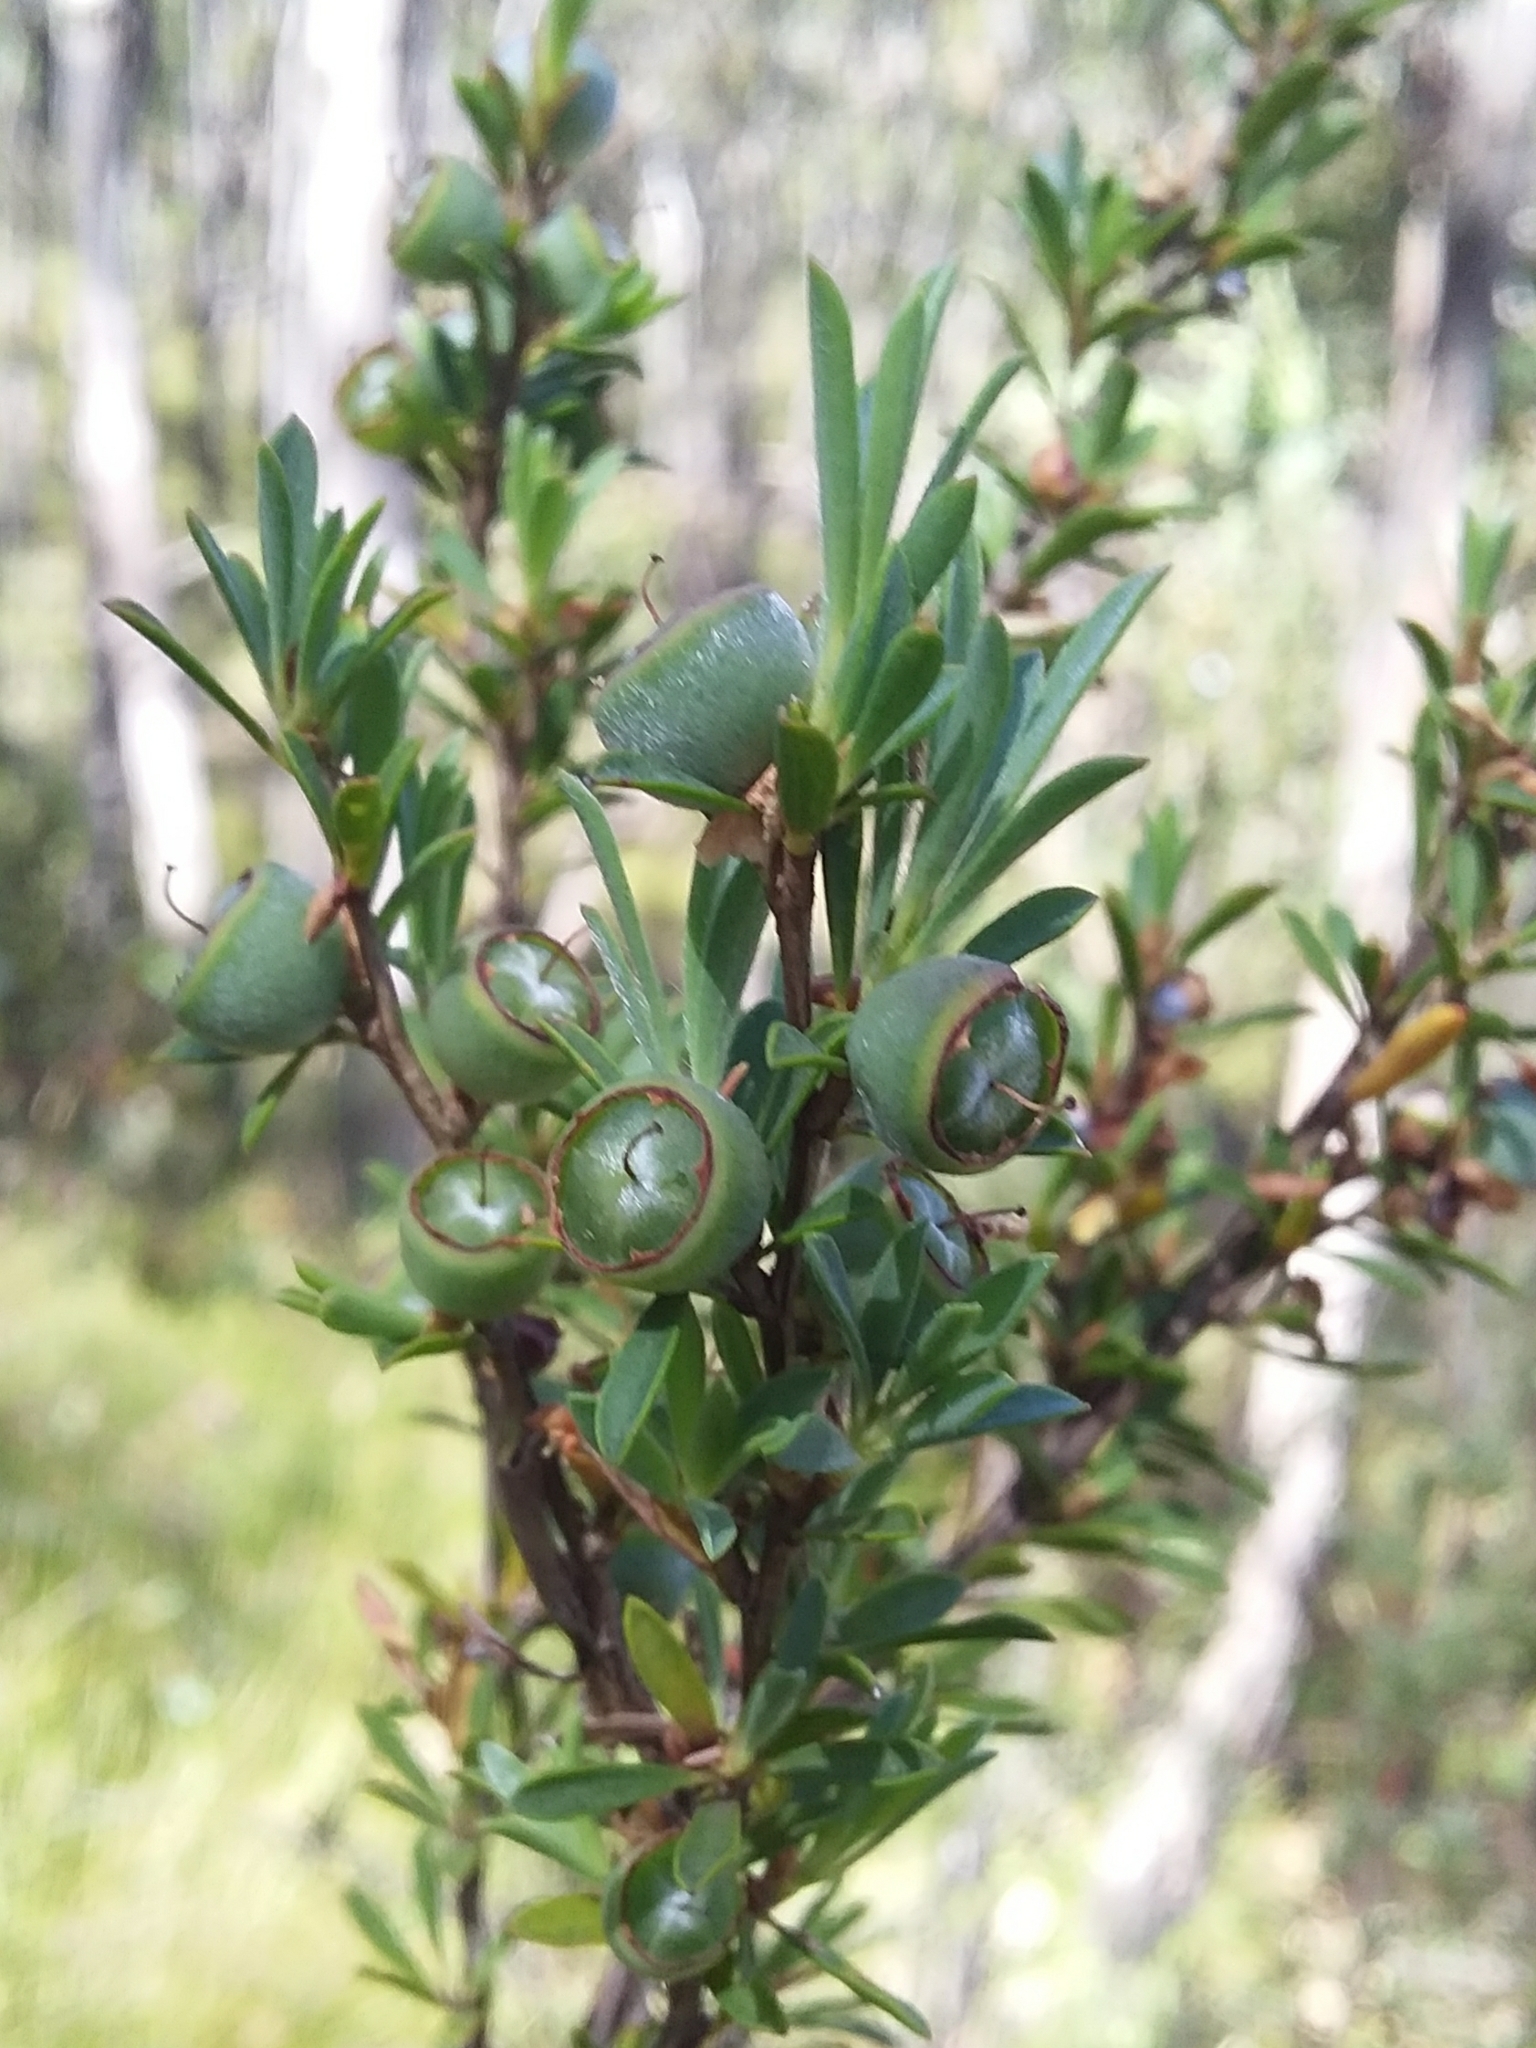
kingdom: Plantae
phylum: Tracheophyta
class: Magnoliopsida
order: Myrtales
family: Myrtaceae
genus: Leptospermum
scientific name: Leptospermum myrsinoides
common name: Heath teatree
